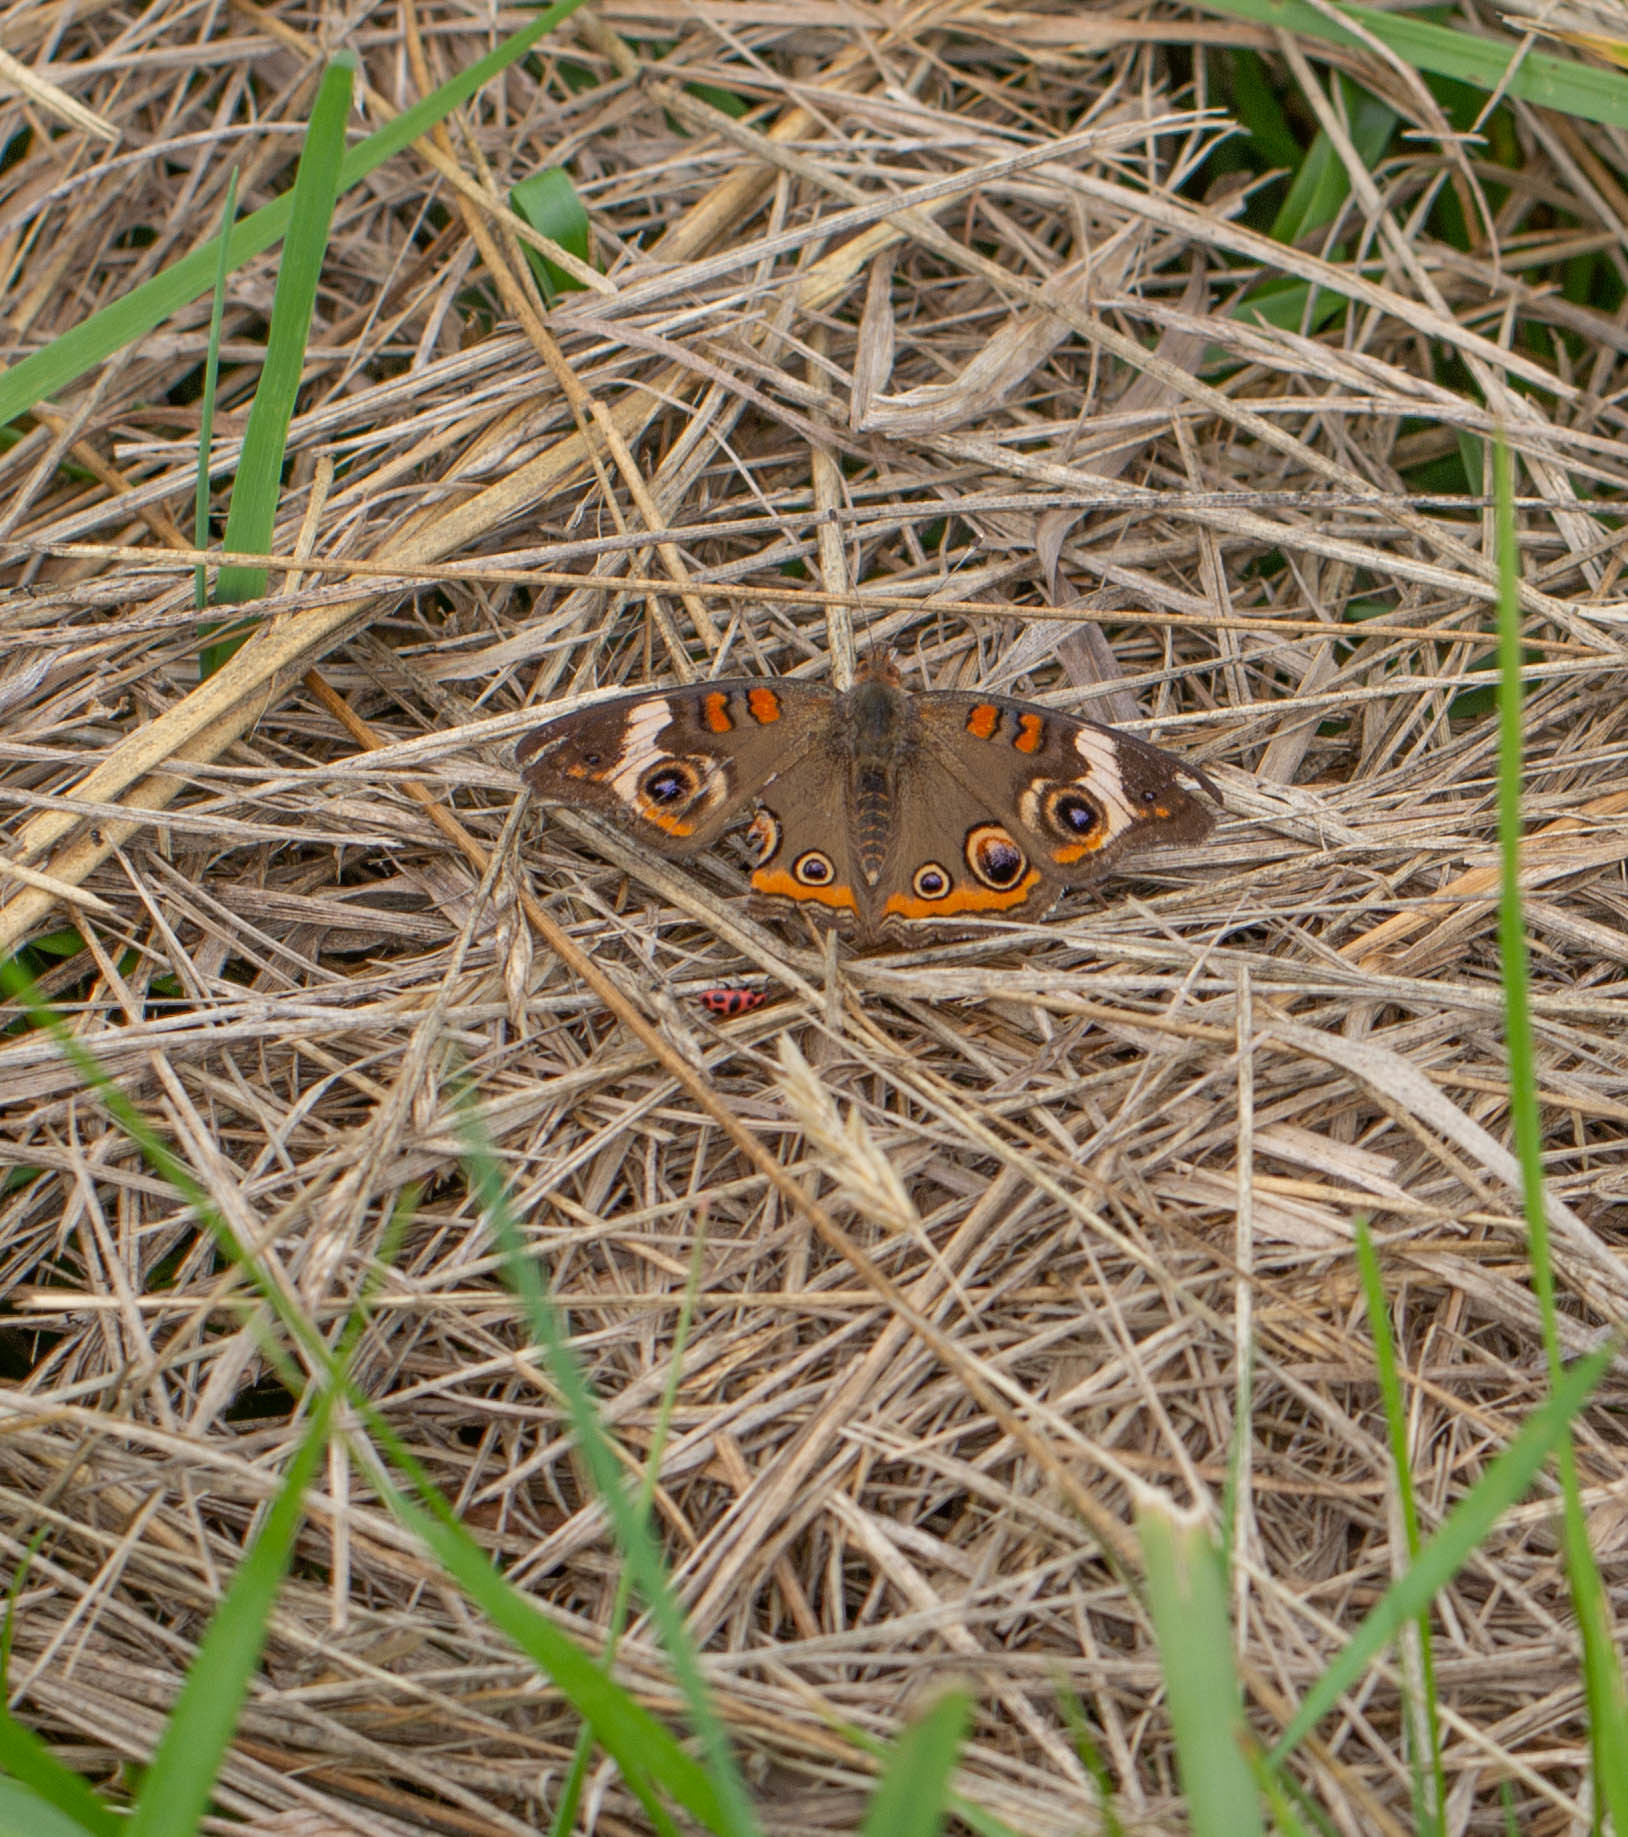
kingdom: Animalia
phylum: Arthropoda
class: Insecta
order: Lepidoptera
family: Nymphalidae
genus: Junonia
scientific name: Junonia coenia
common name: Common buckeye
